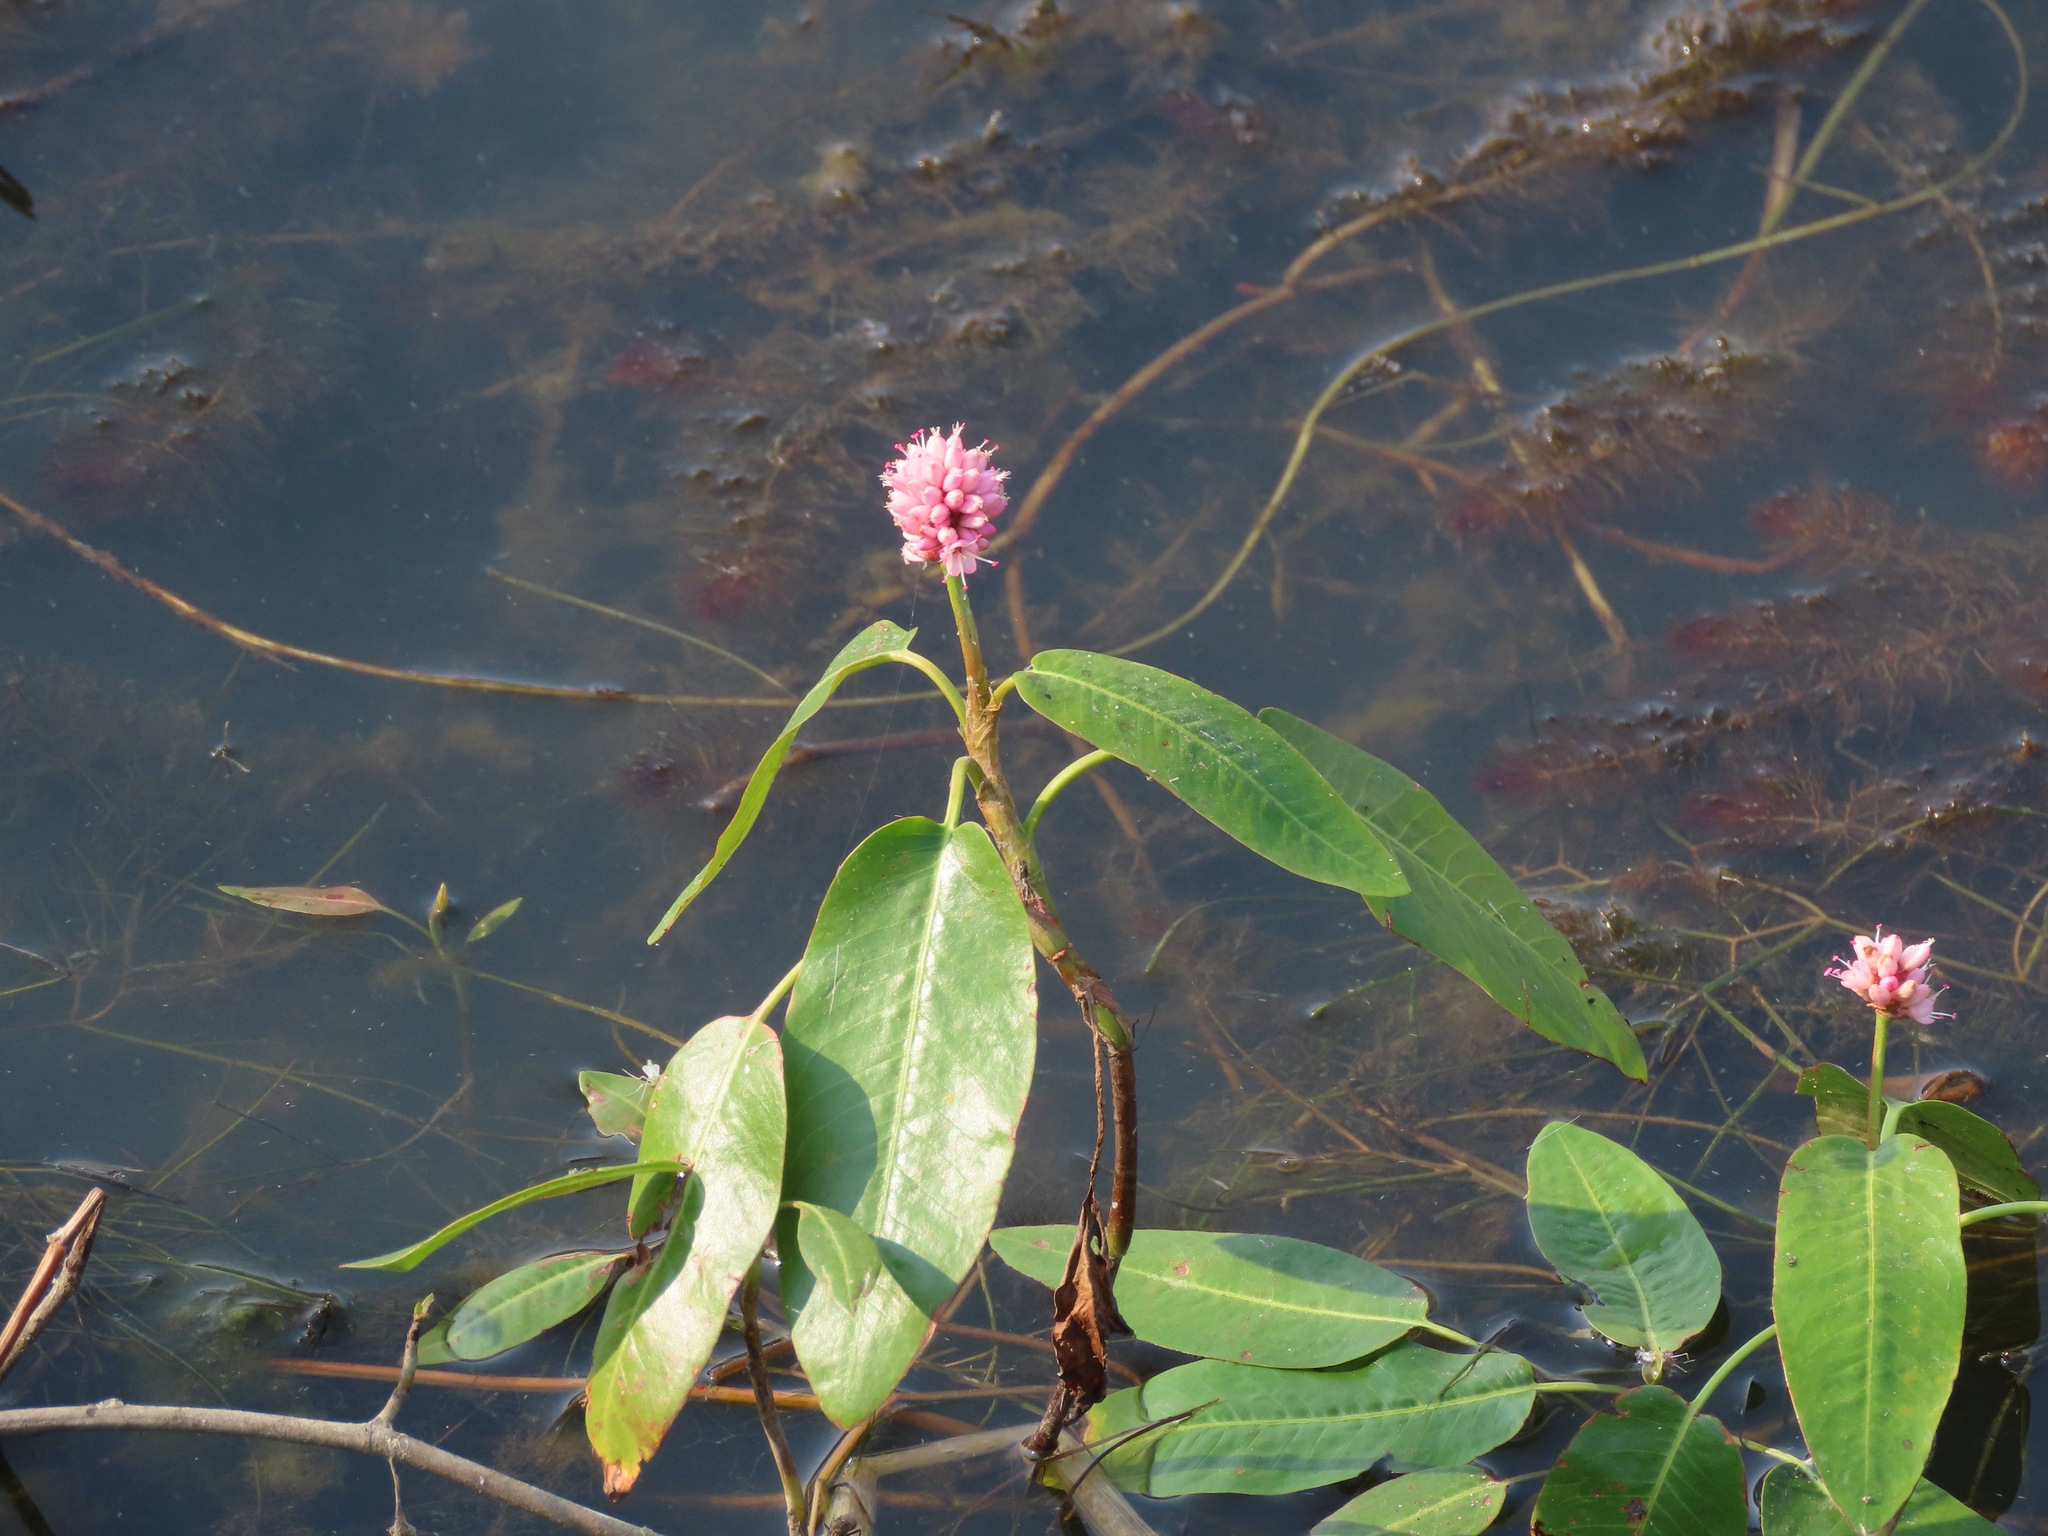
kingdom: Plantae
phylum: Tracheophyta
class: Magnoliopsida
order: Caryophyllales
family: Polygonaceae
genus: Persicaria
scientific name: Persicaria amphibia
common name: Amphibious bistort
